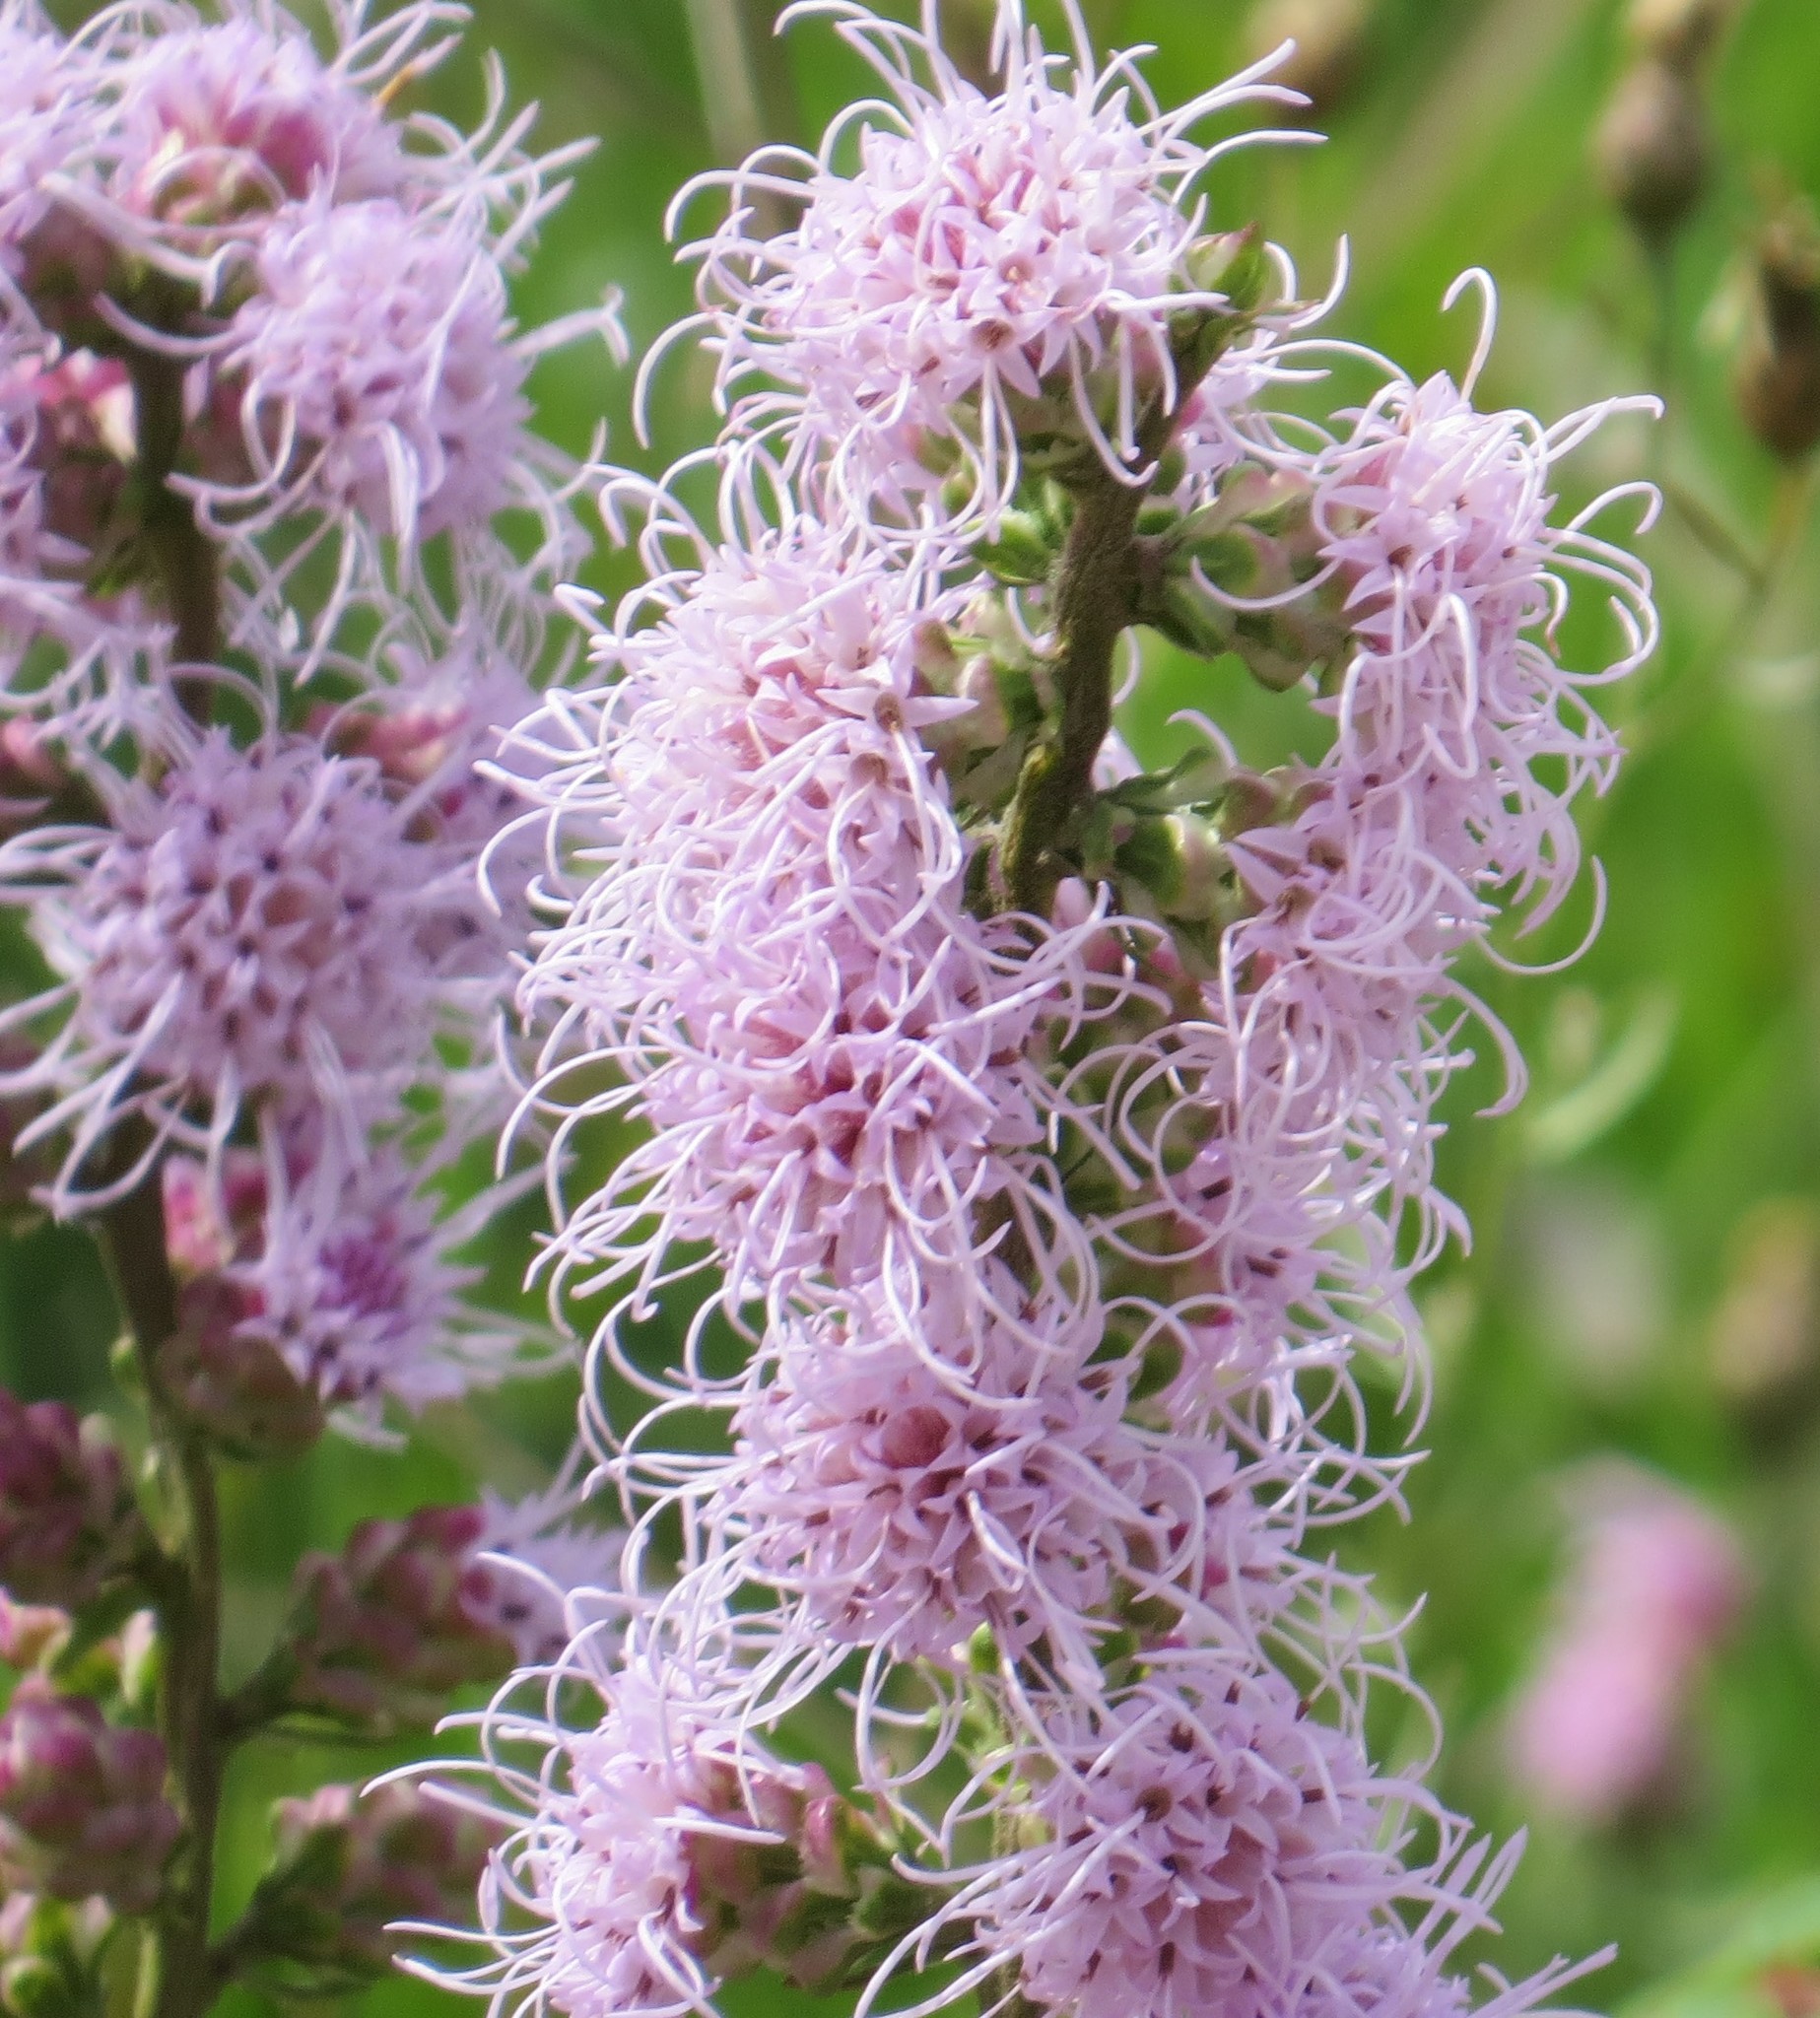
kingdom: Plantae
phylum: Tracheophyta
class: Magnoliopsida
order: Asterales
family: Asteraceae
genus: Liatris
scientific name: Liatris aspera
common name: Lacerate blazing-star
